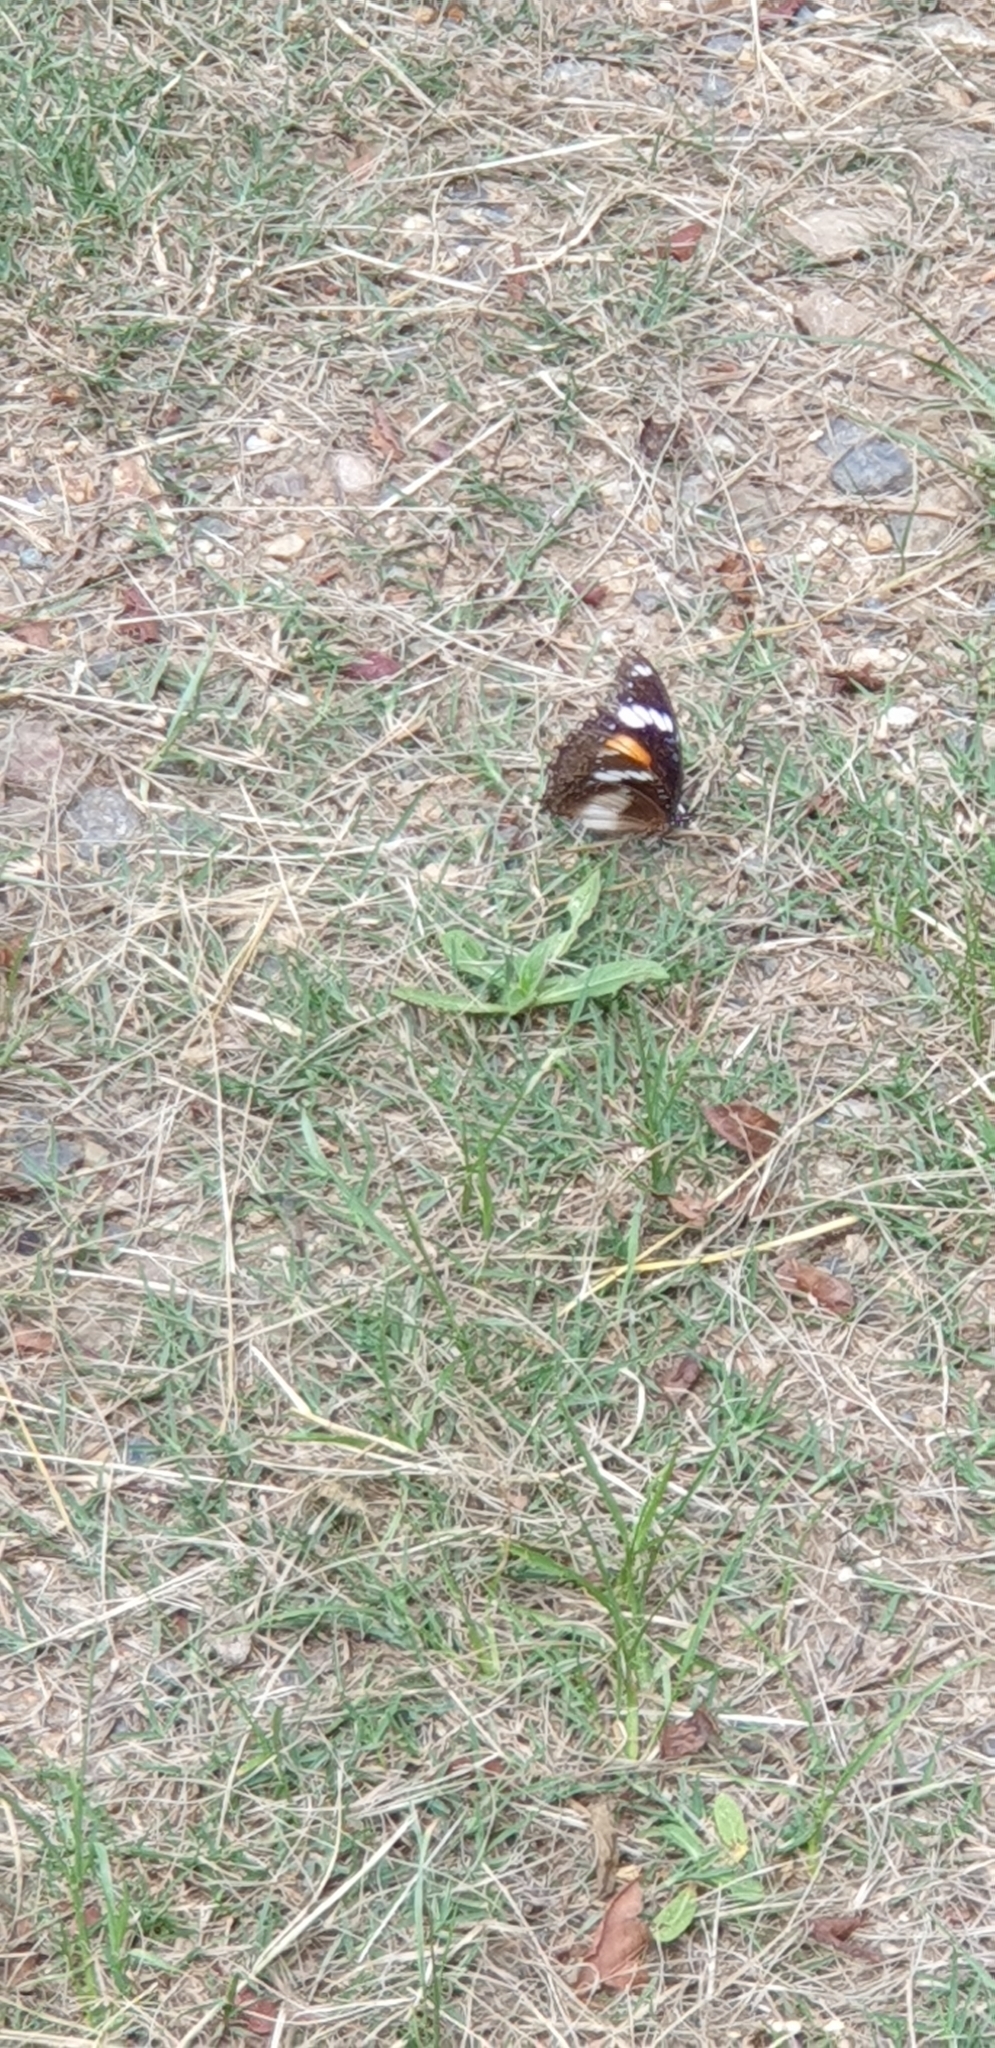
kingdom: Animalia
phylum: Arthropoda
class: Insecta
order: Lepidoptera
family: Nymphalidae
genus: Hypolimnas
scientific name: Hypolimnas bolina
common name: Great eggfly
